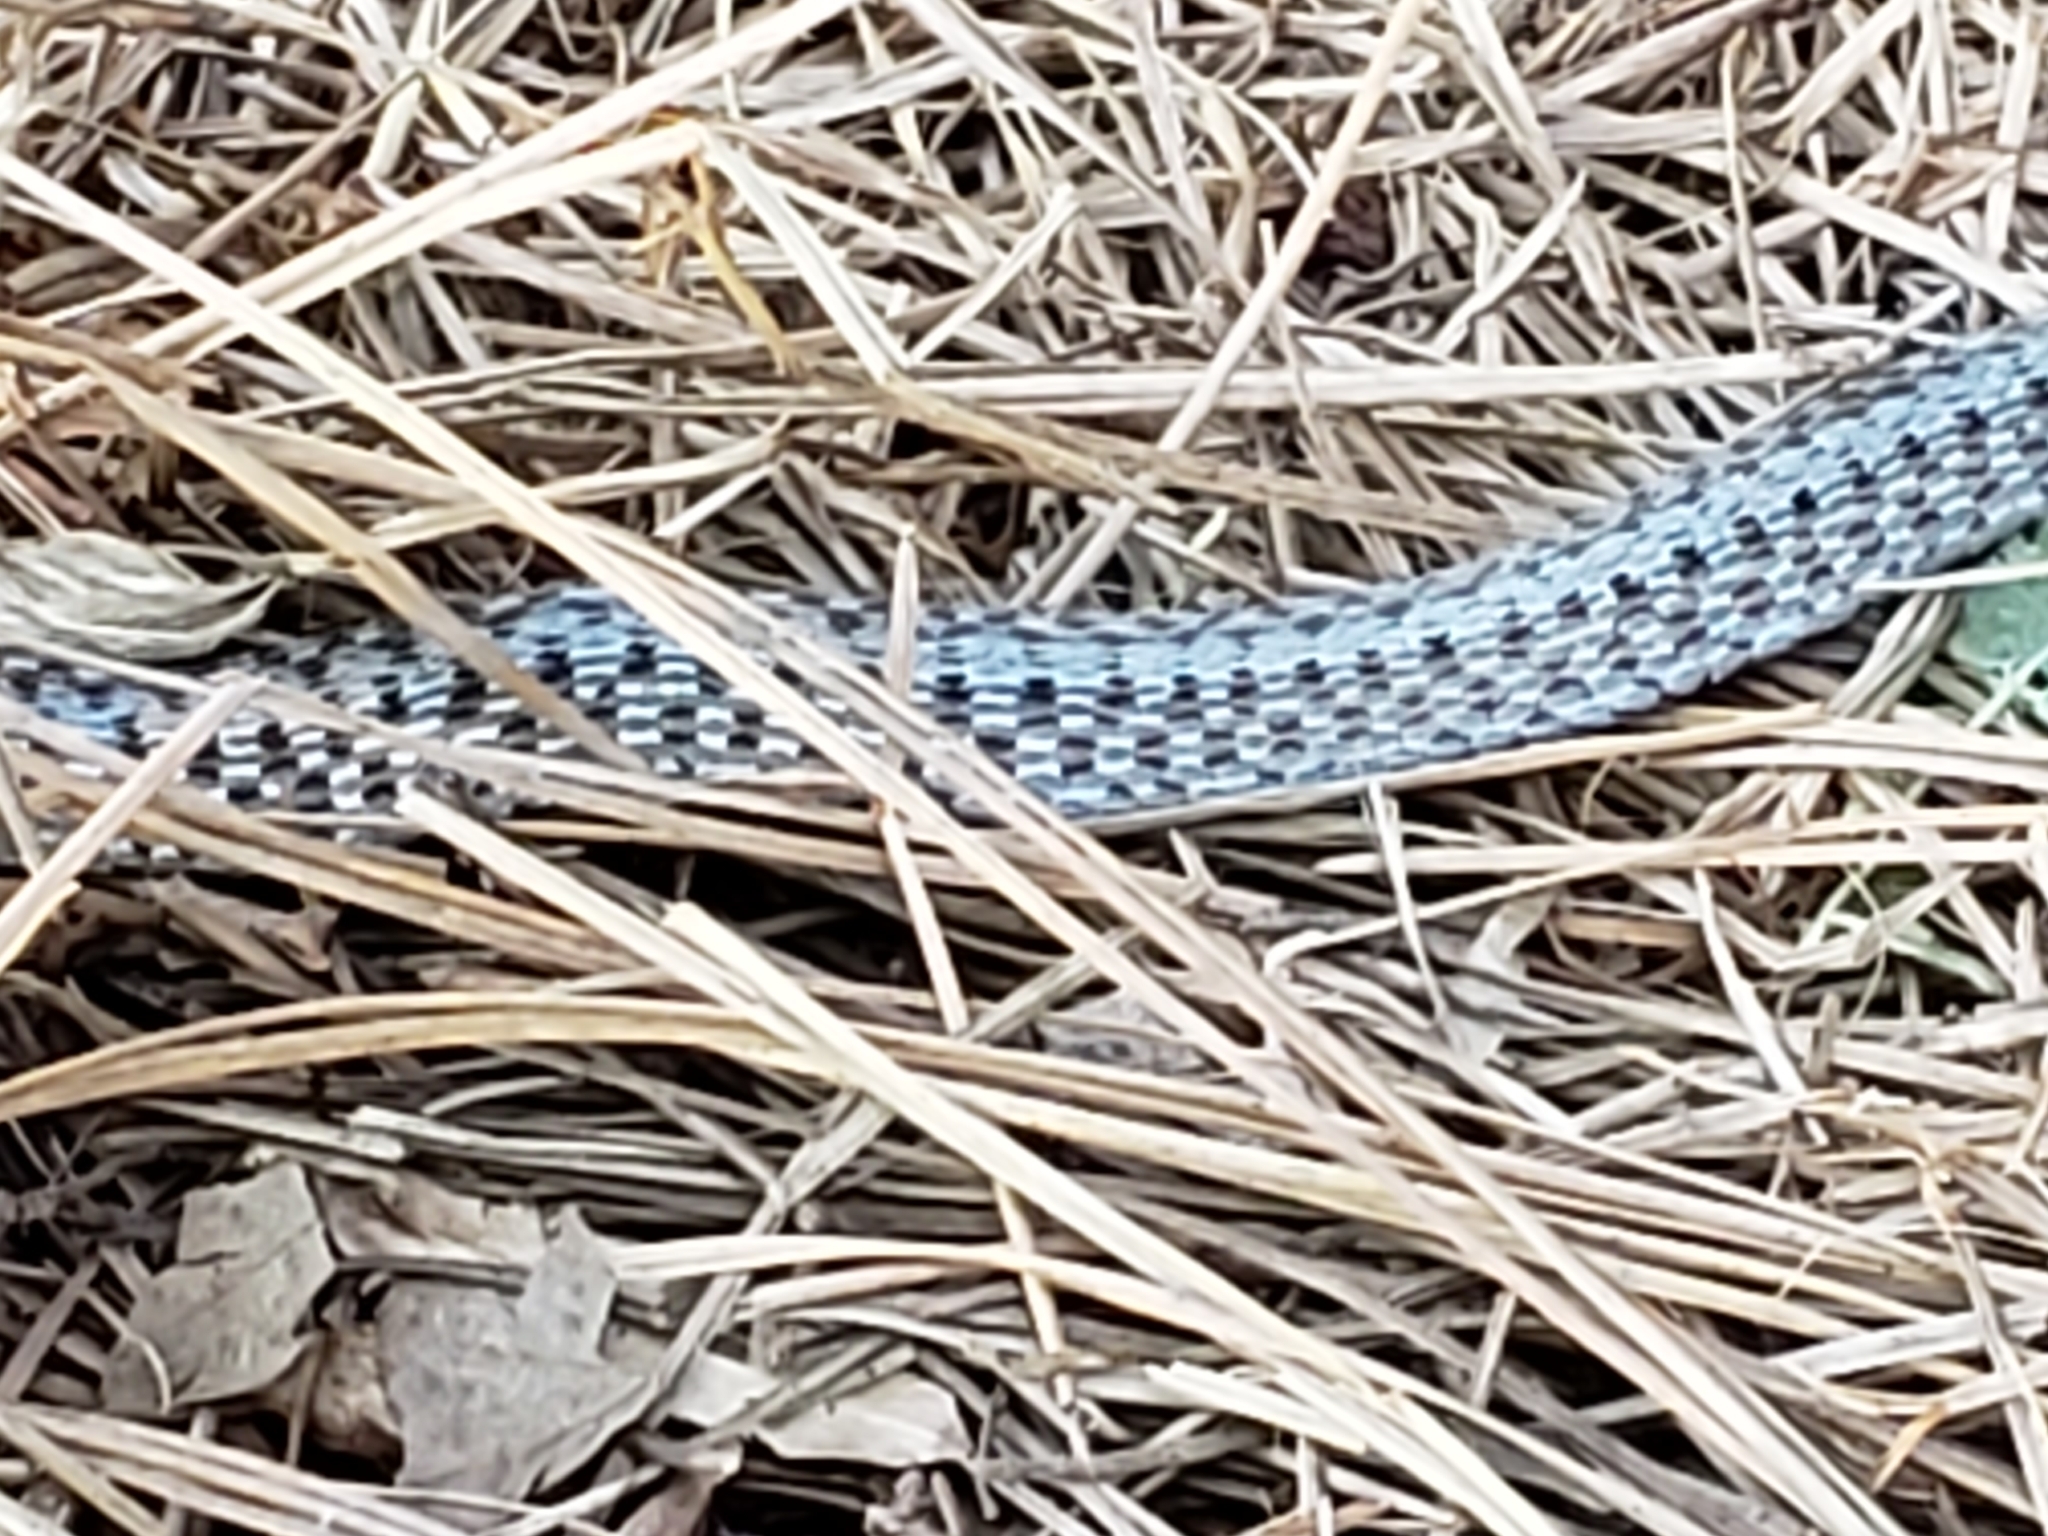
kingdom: Animalia
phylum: Chordata
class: Squamata
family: Colubridae
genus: Storeria
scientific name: Storeria dekayi
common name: (dekay’s) brown snake
